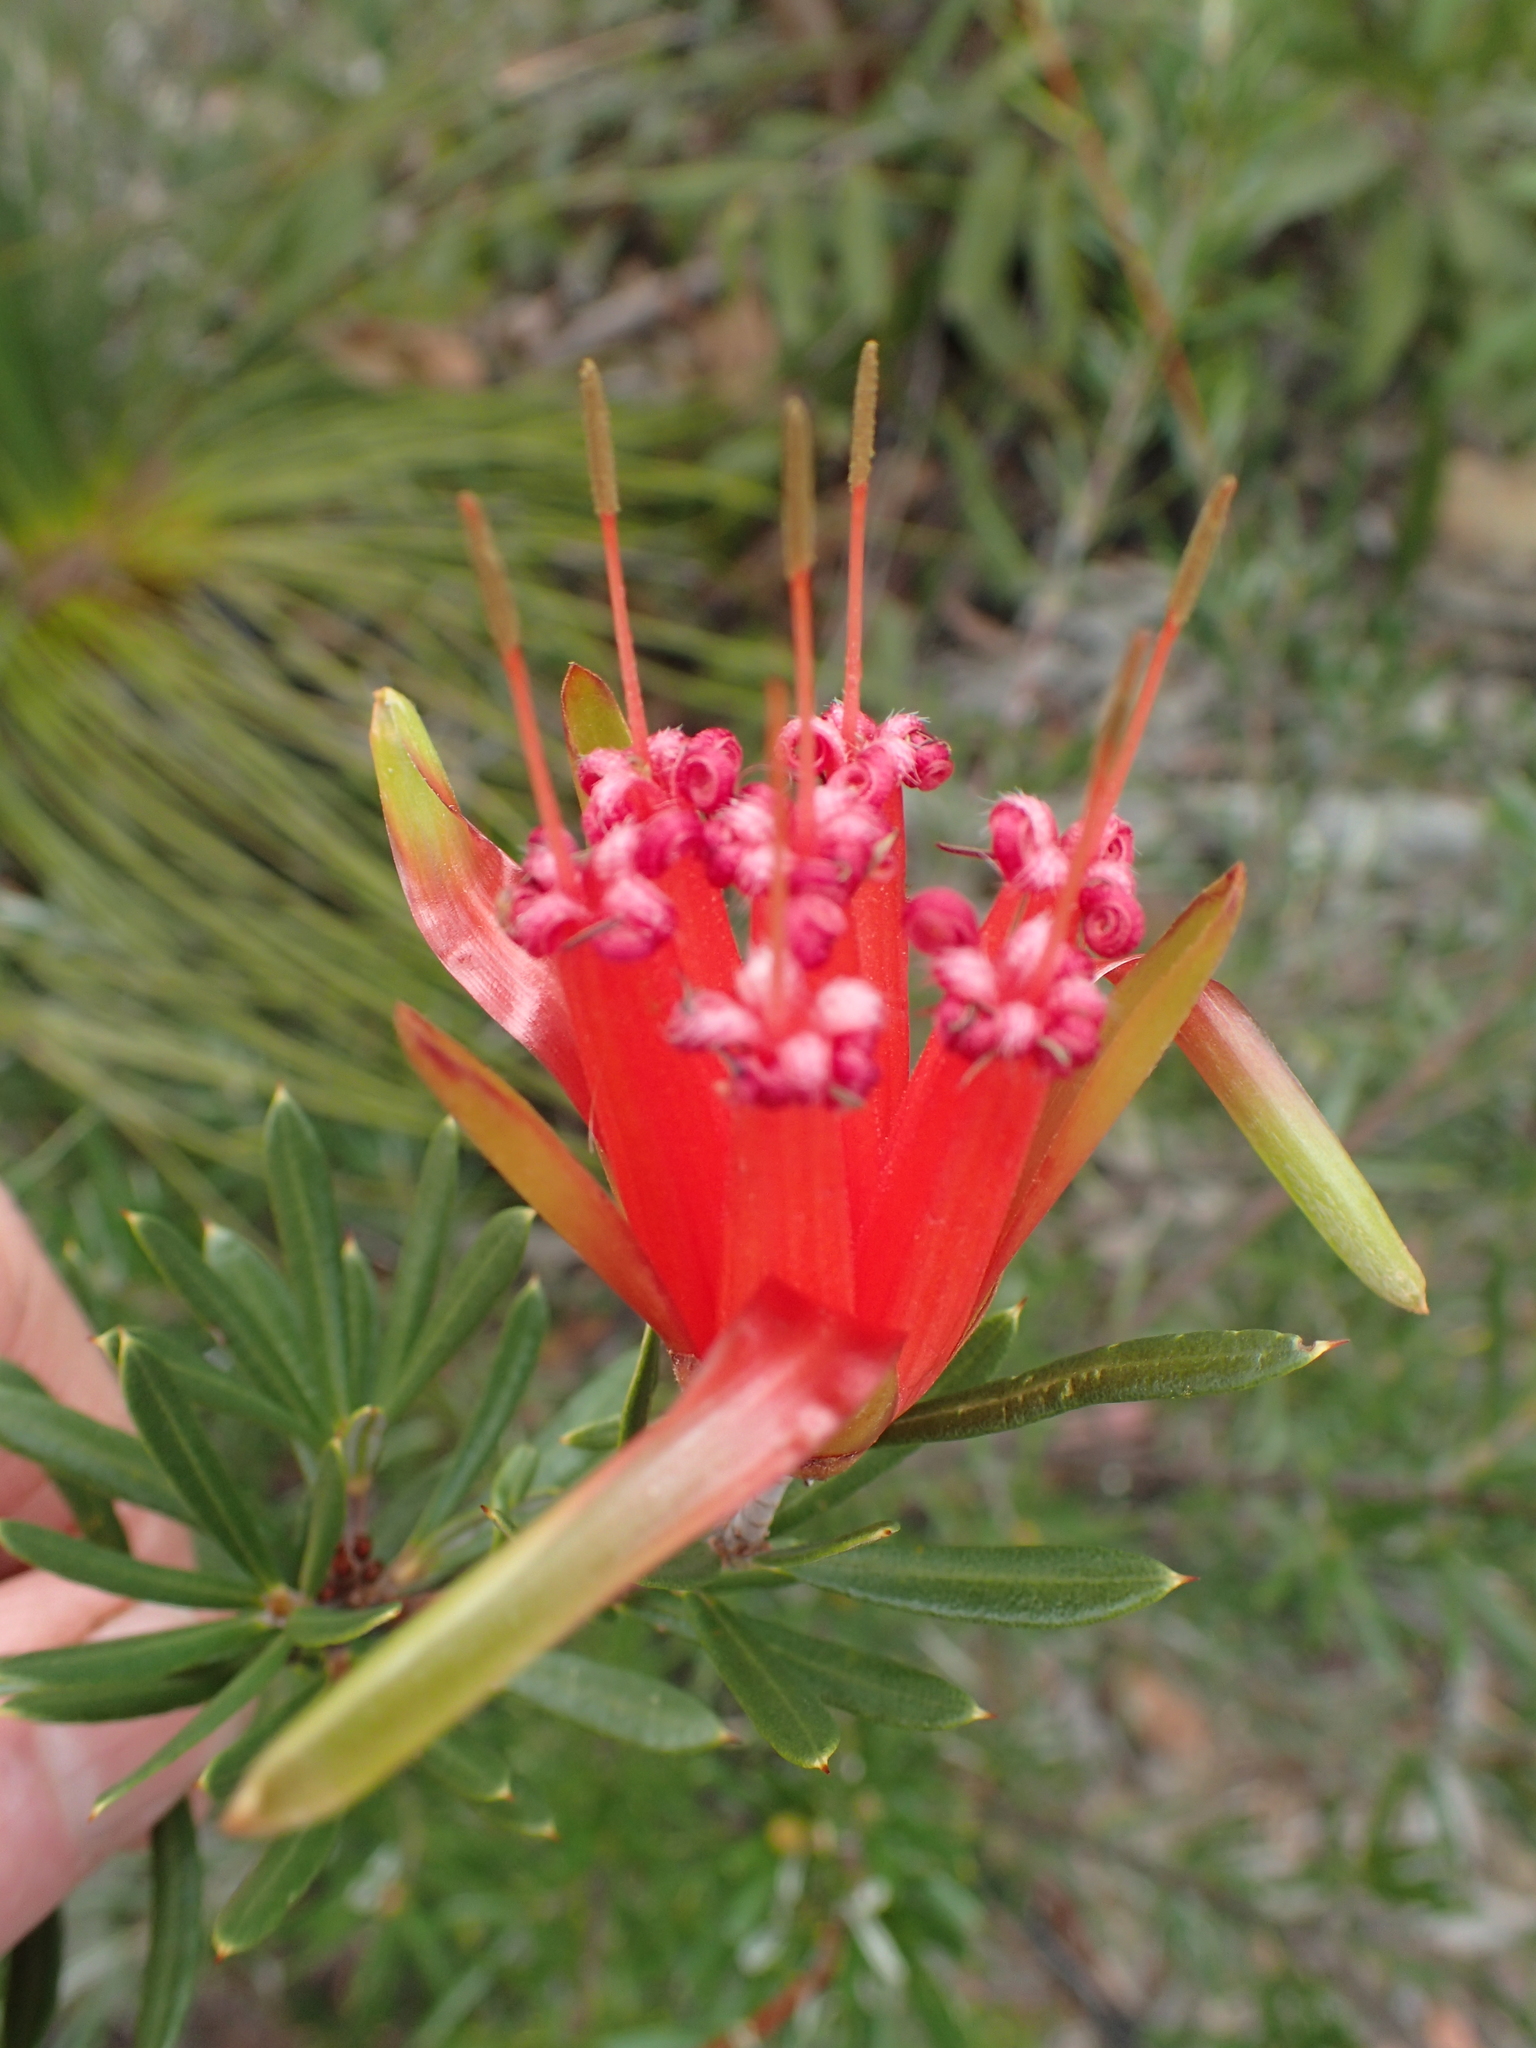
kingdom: Plantae
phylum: Tracheophyta
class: Magnoliopsida
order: Proteales
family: Proteaceae
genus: Lambertia
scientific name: Lambertia formosa
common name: Mountain-devil
